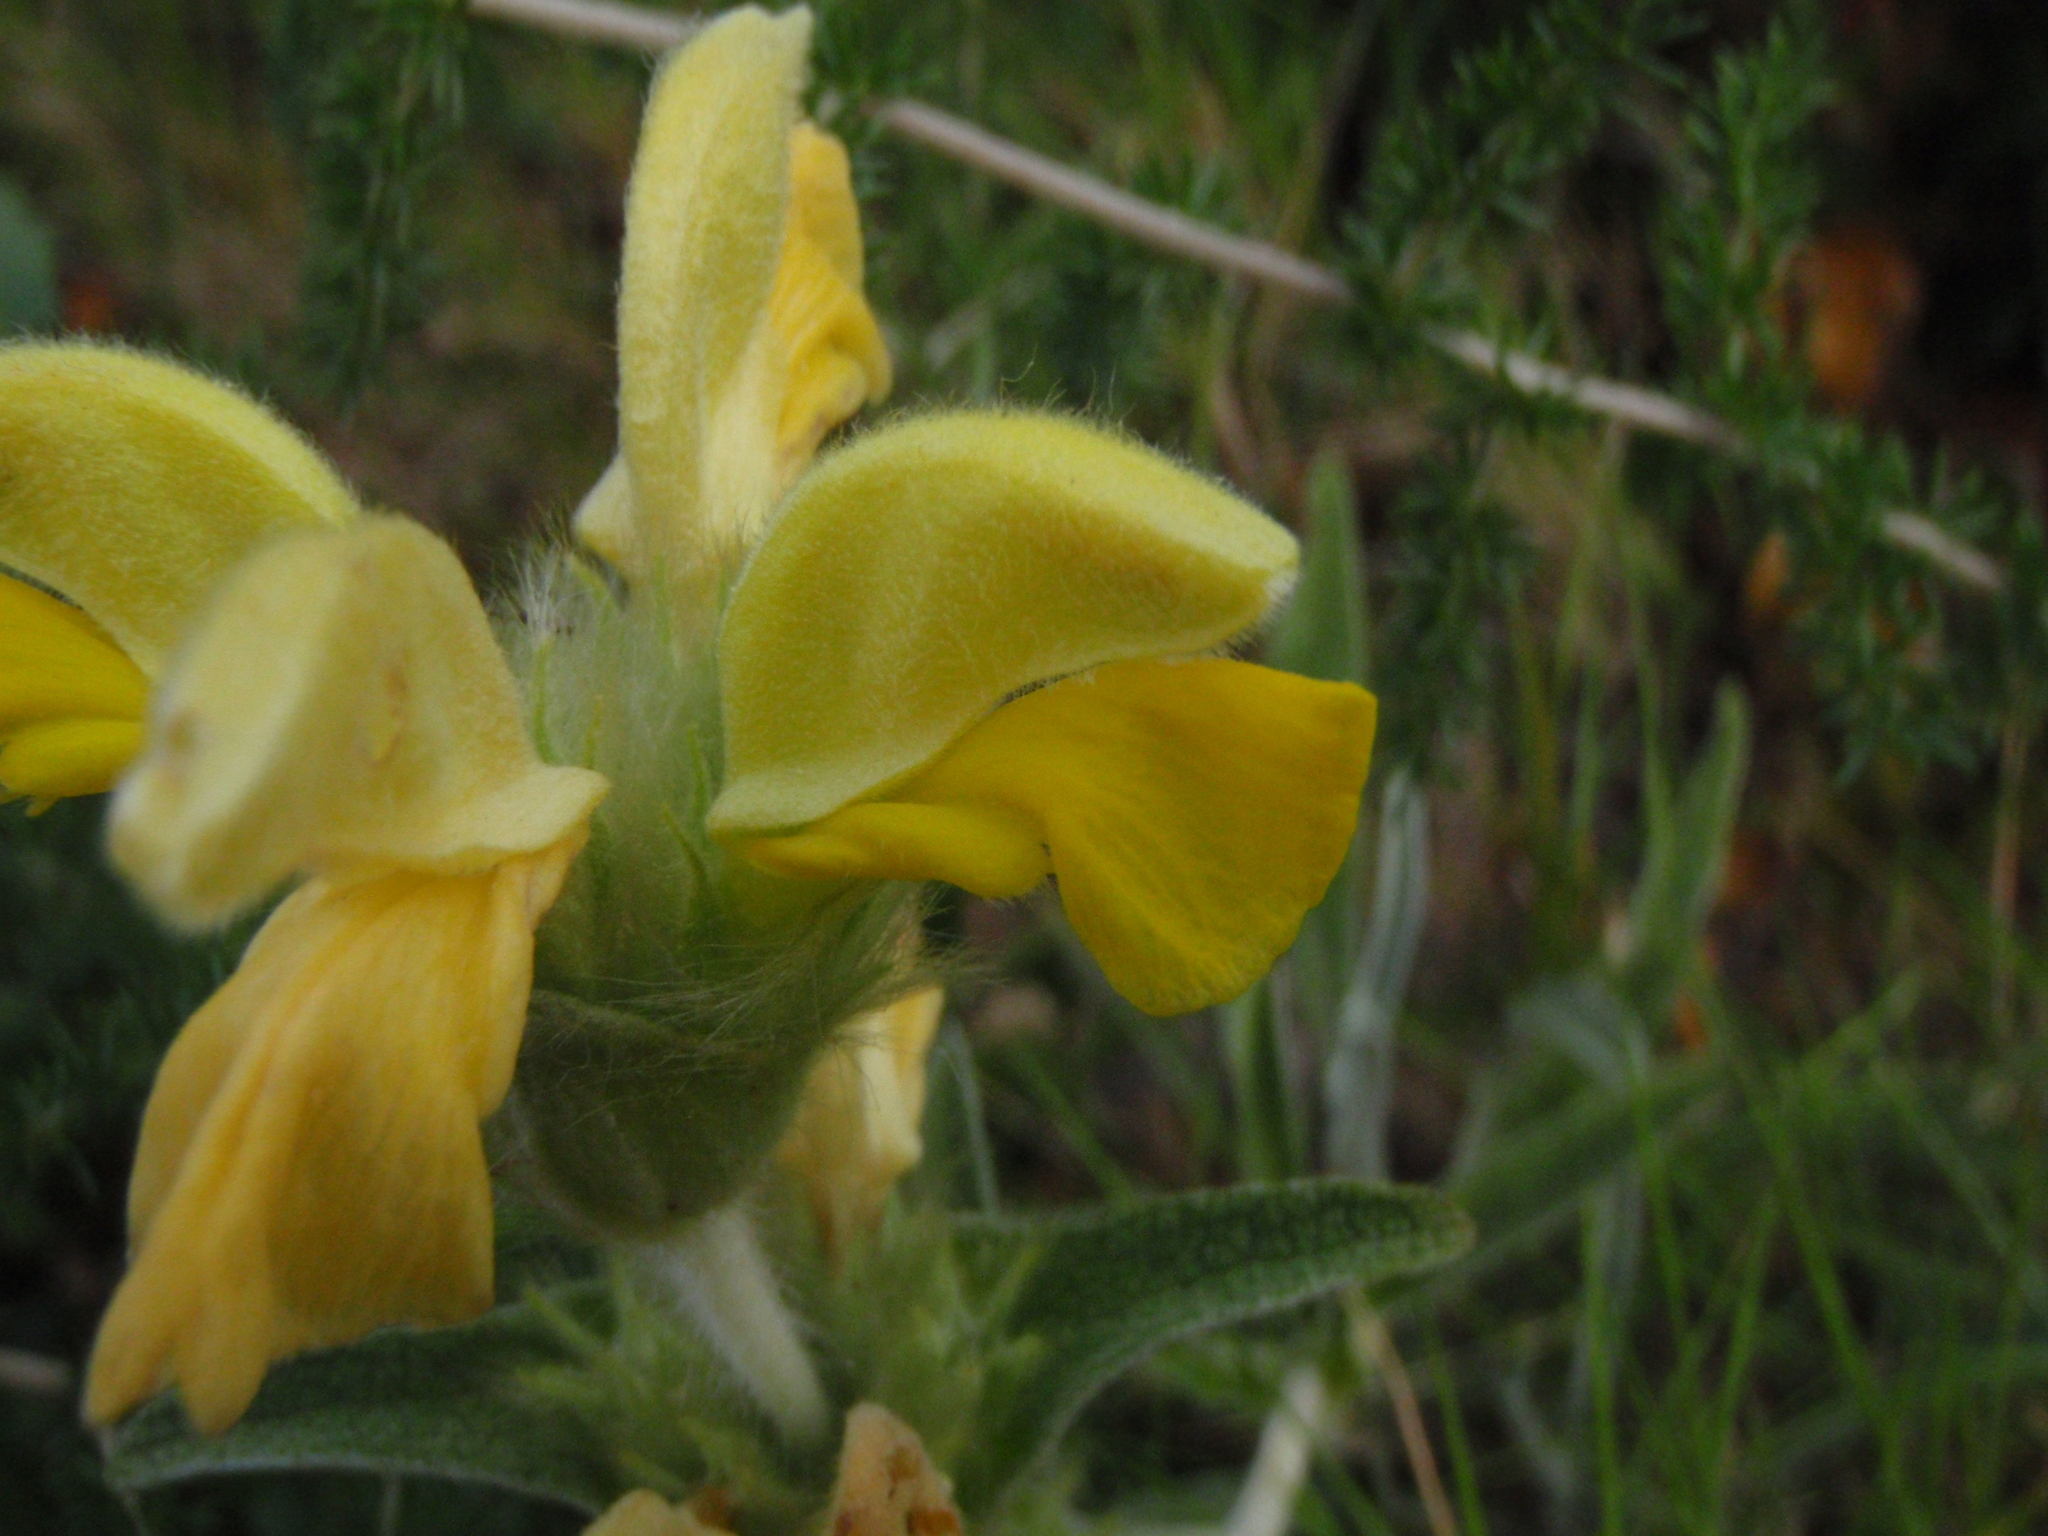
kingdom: Plantae
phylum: Tracheophyta
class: Magnoliopsida
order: Lamiales
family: Lamiaceae
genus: Phlomis
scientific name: Phlomis lychnitis
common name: Lampwickplant
